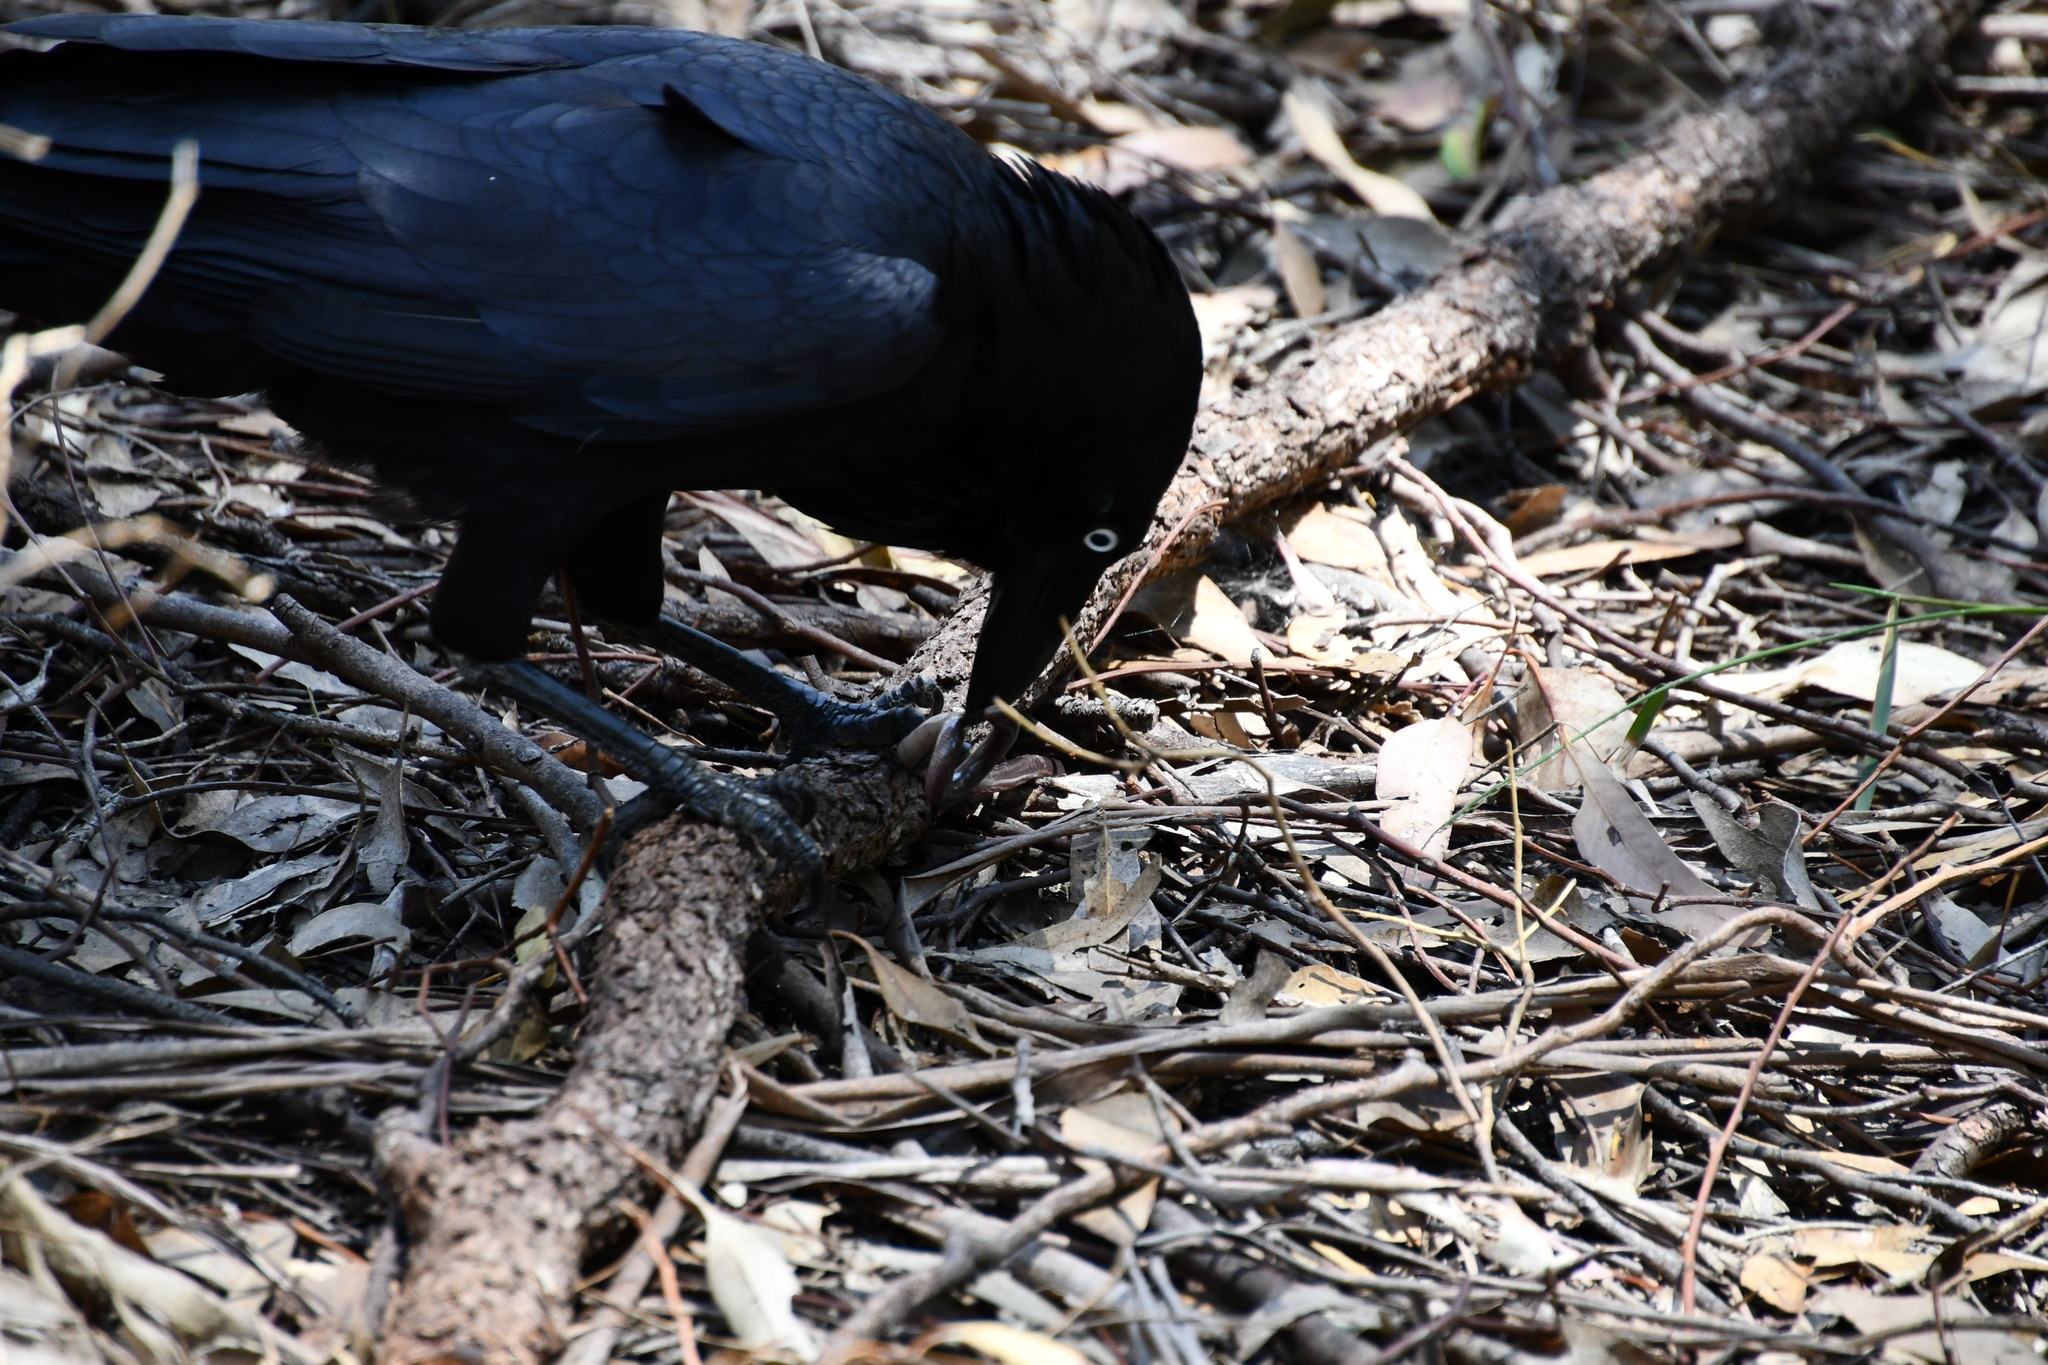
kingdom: Animalia
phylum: Chordata
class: Aves
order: Passeriformes
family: Corvidae
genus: Corvus
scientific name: Corvus coronoides
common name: Australian raven
